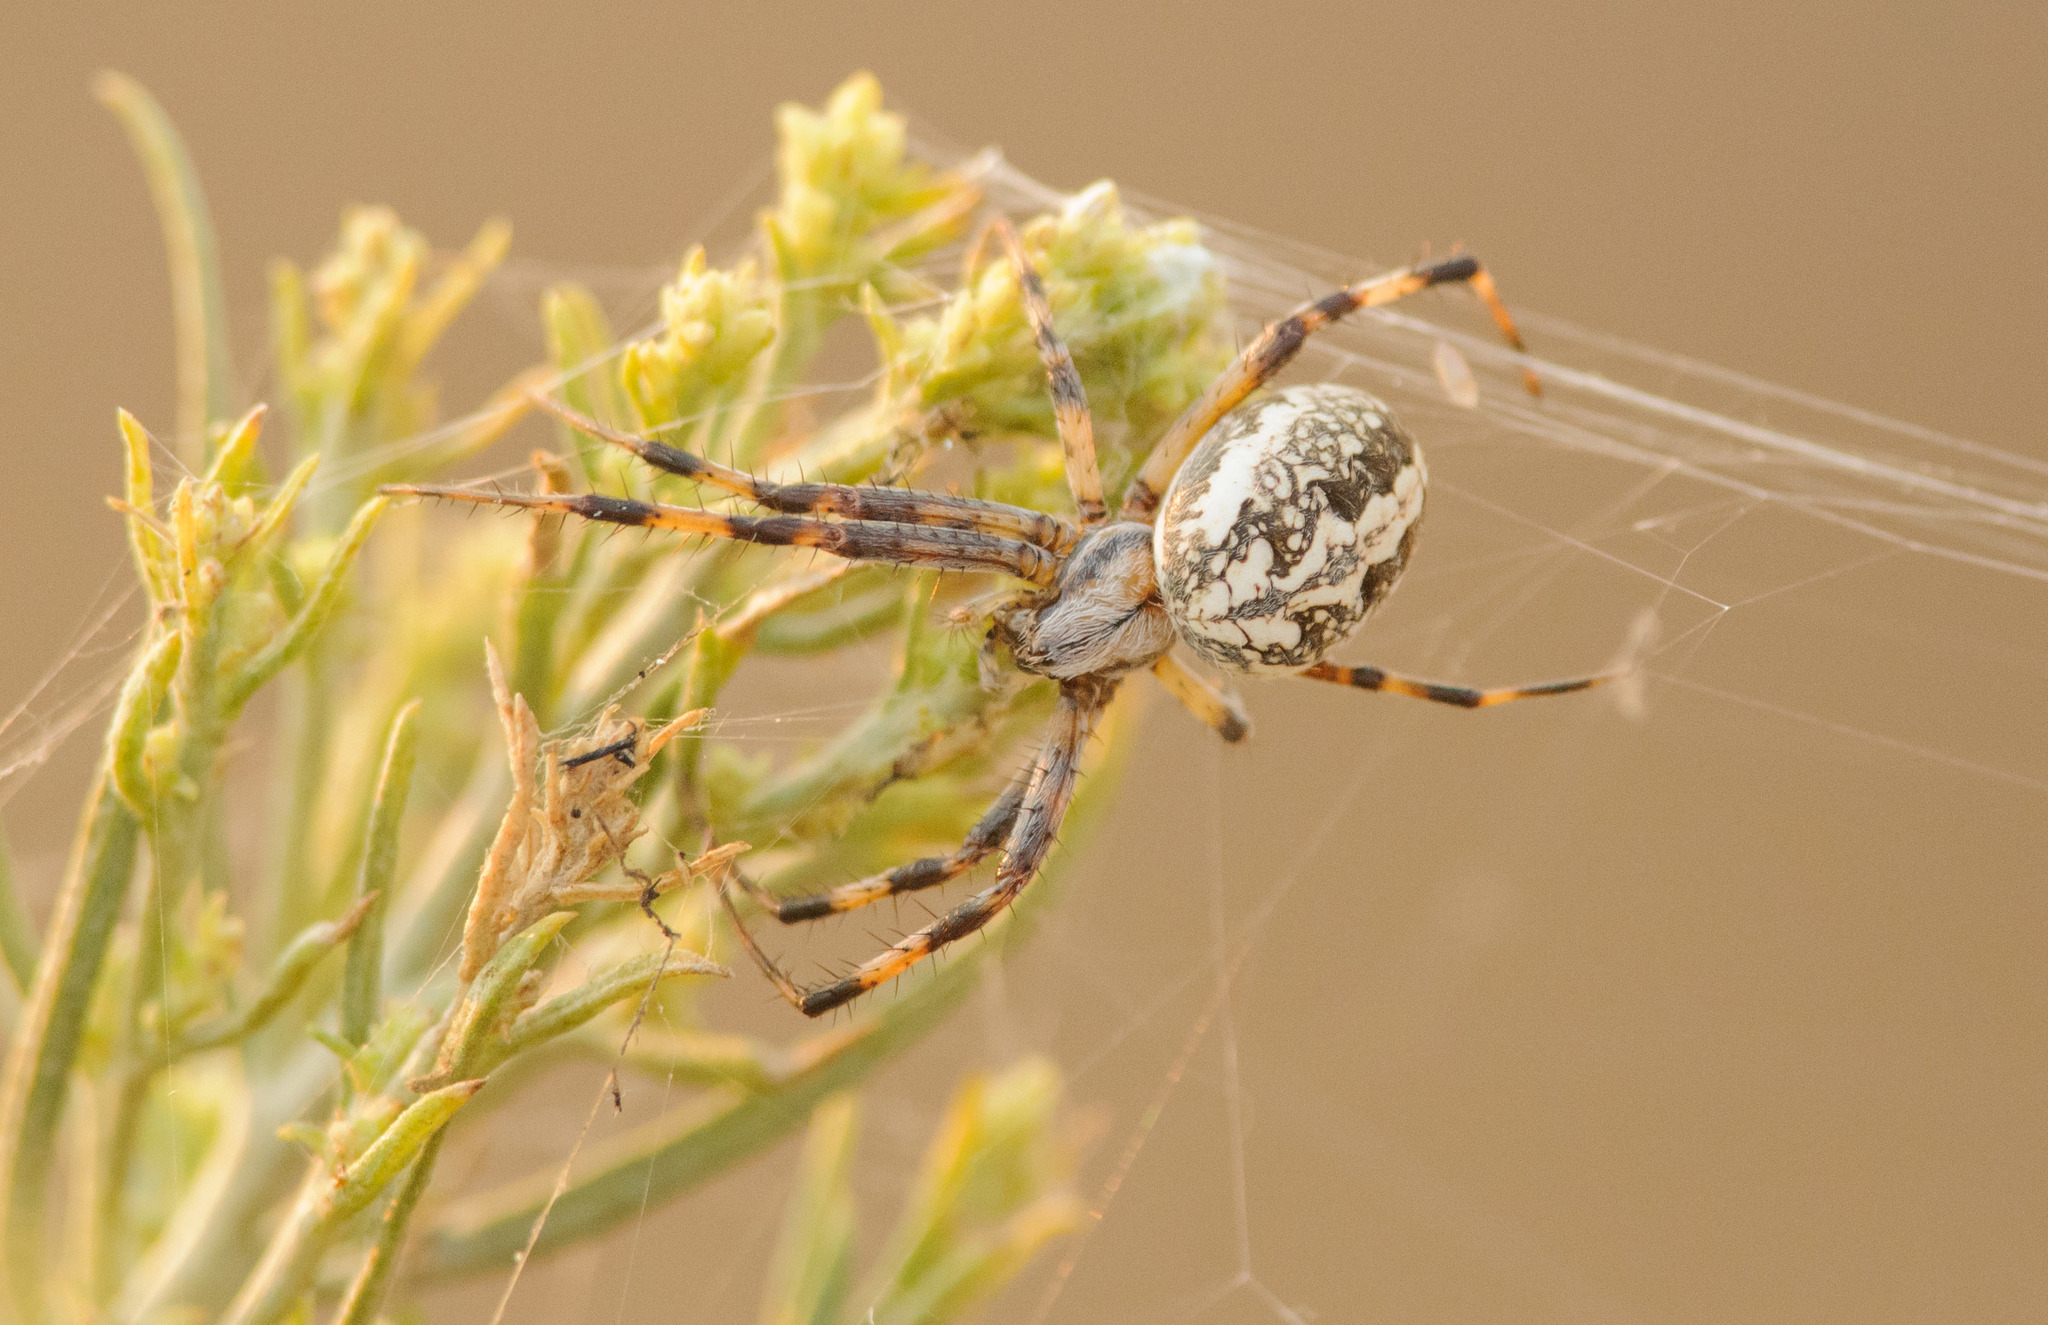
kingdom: Animalia
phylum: Arthropoda
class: Arachnida
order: Araneae
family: Araneidae
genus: Neoscona
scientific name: Neoscona oaxacensis
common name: Orb weavers
